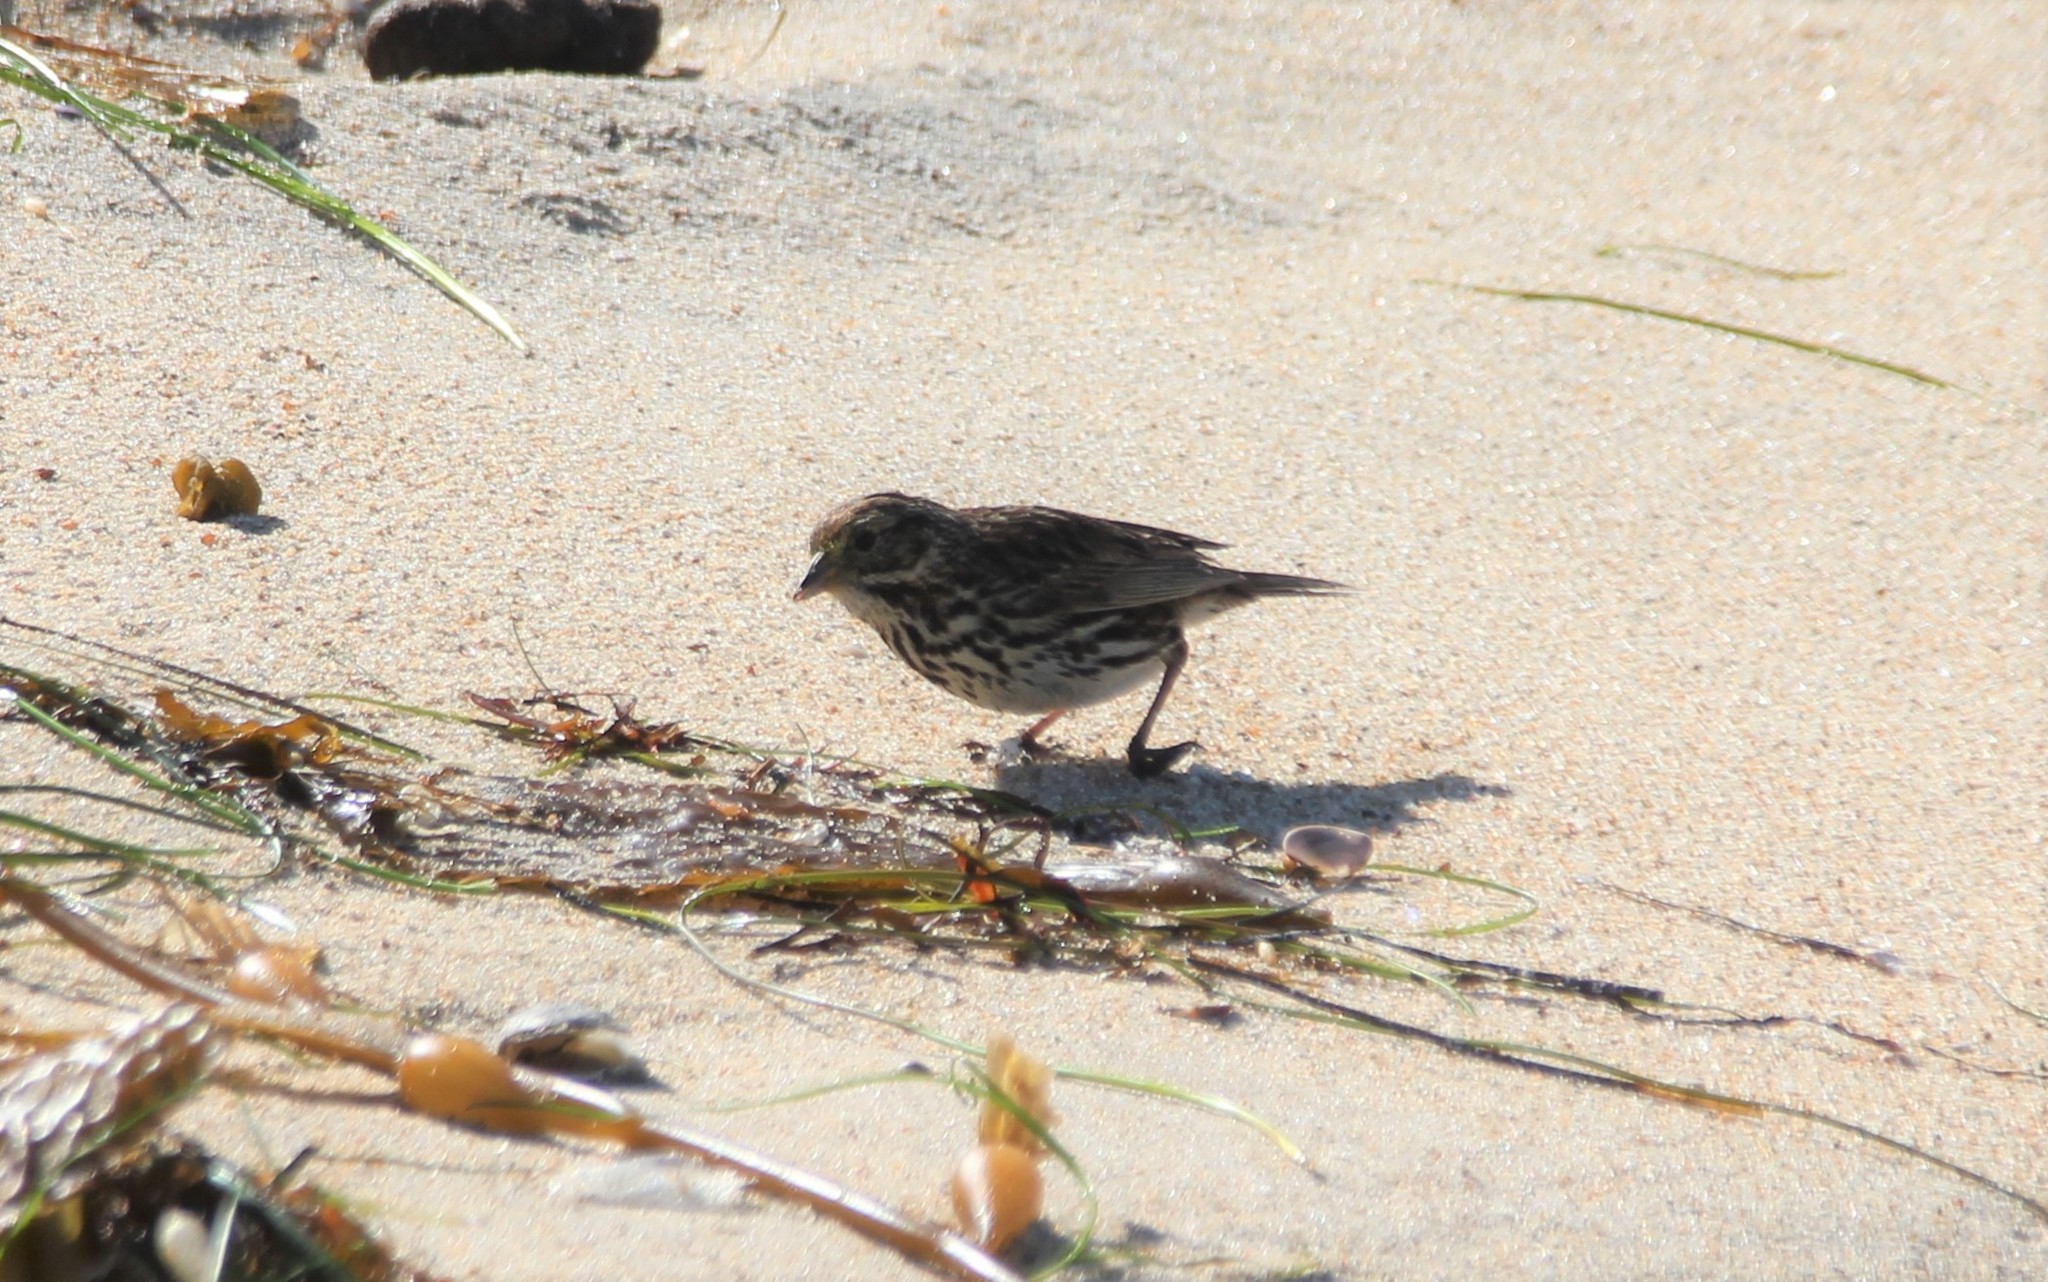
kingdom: Animalia
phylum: Chordata
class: Aves
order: Passeriformes
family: Passerellidae
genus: Passerculus
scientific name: Passerculus sandwichensis
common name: Savannah sparrow
